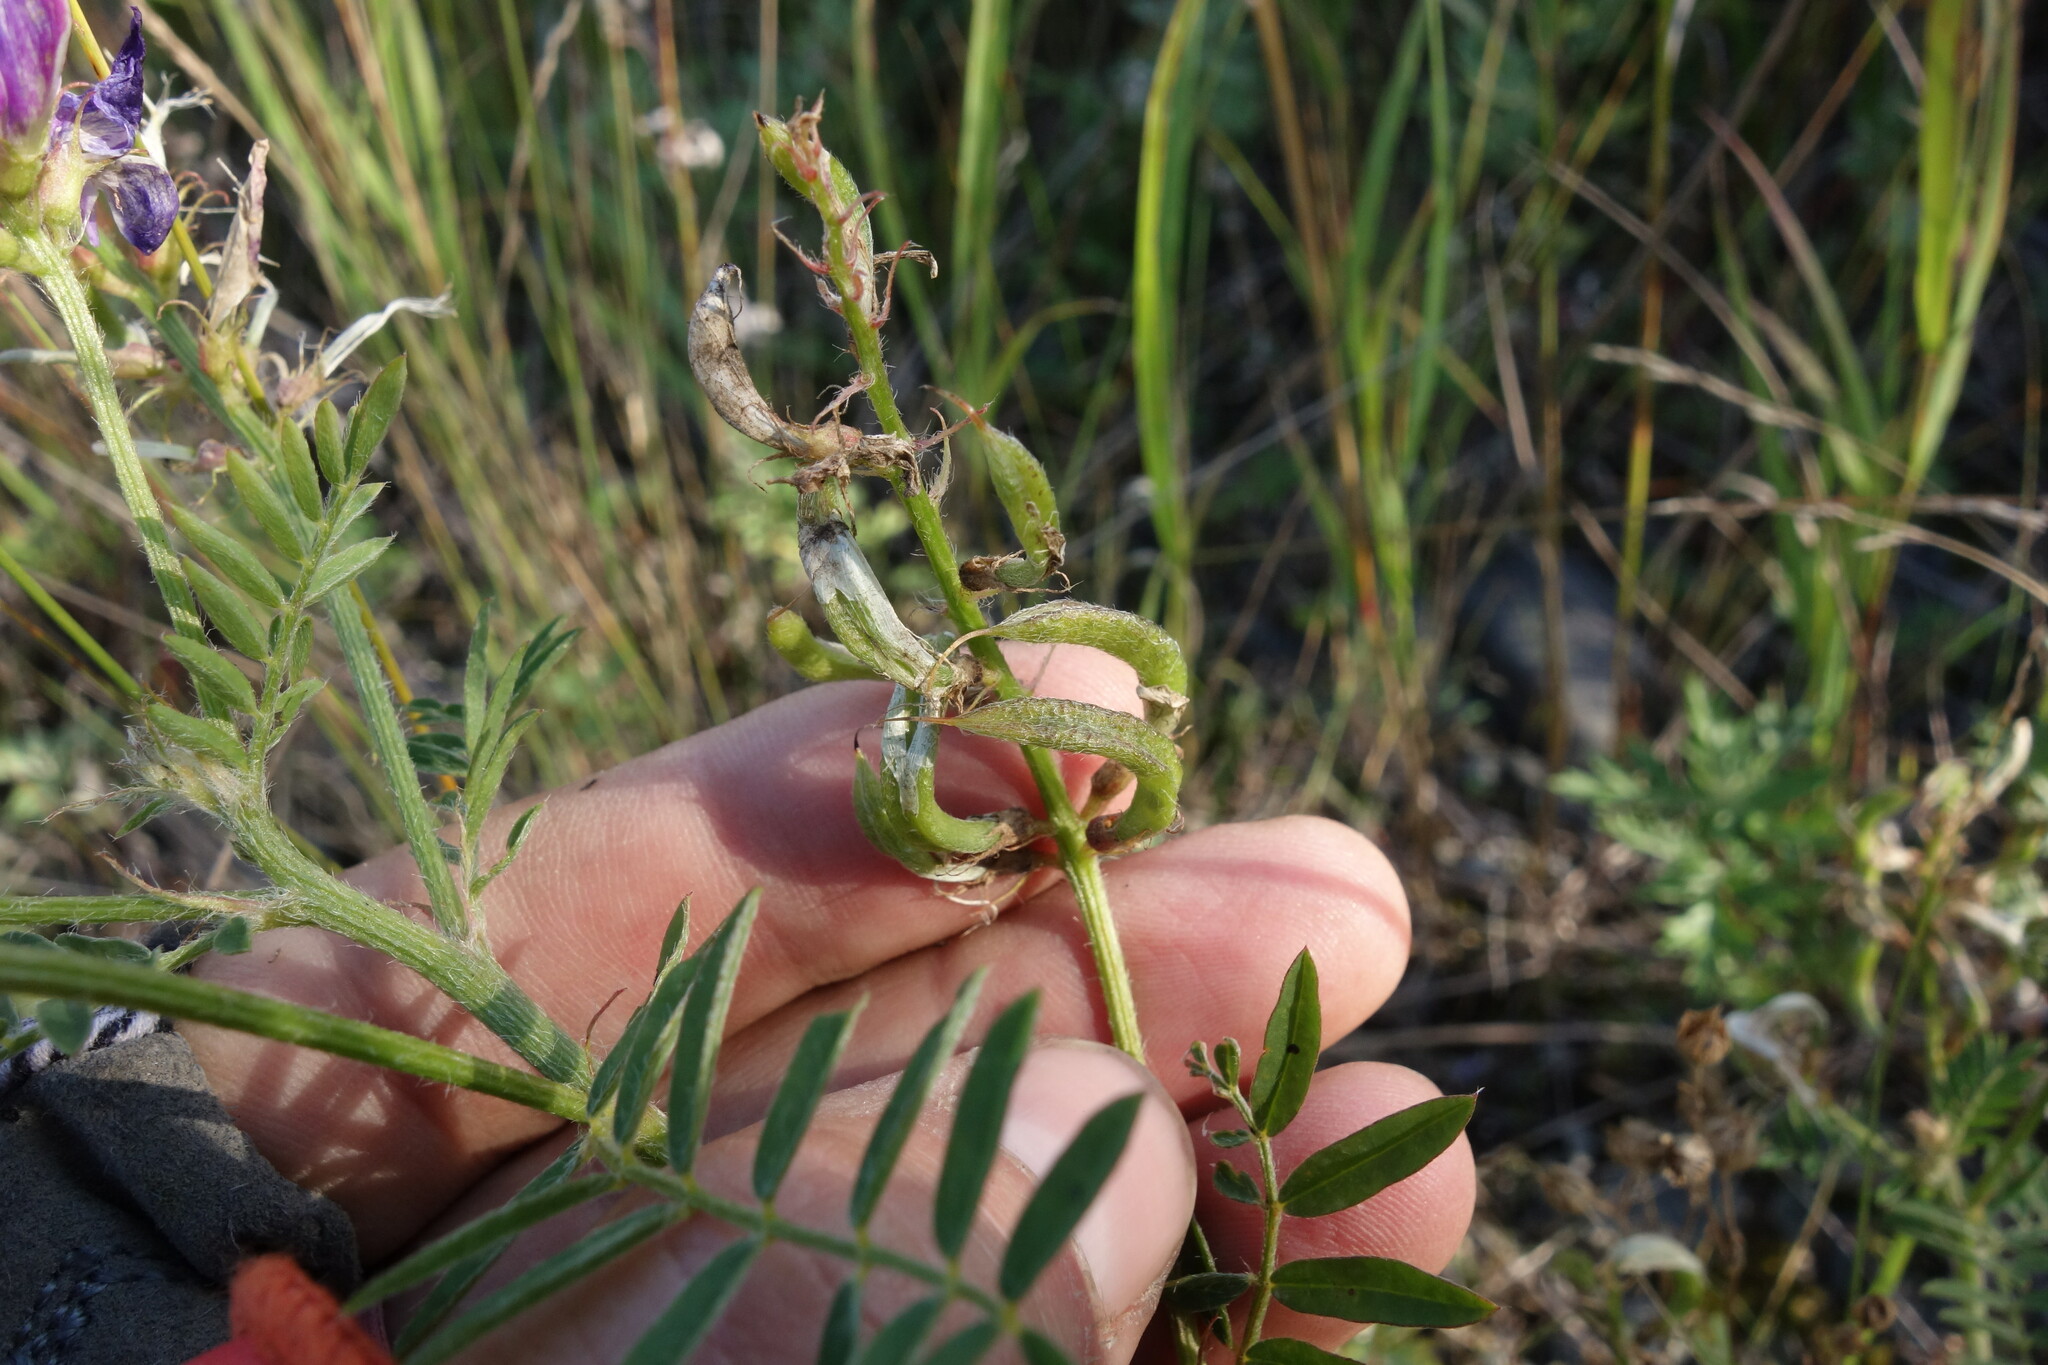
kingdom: Plantae
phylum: Tracheophyta
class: Magnoliopsida
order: Fabales
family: Fabaceae
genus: Astragalus
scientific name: Astragalus davuricus
